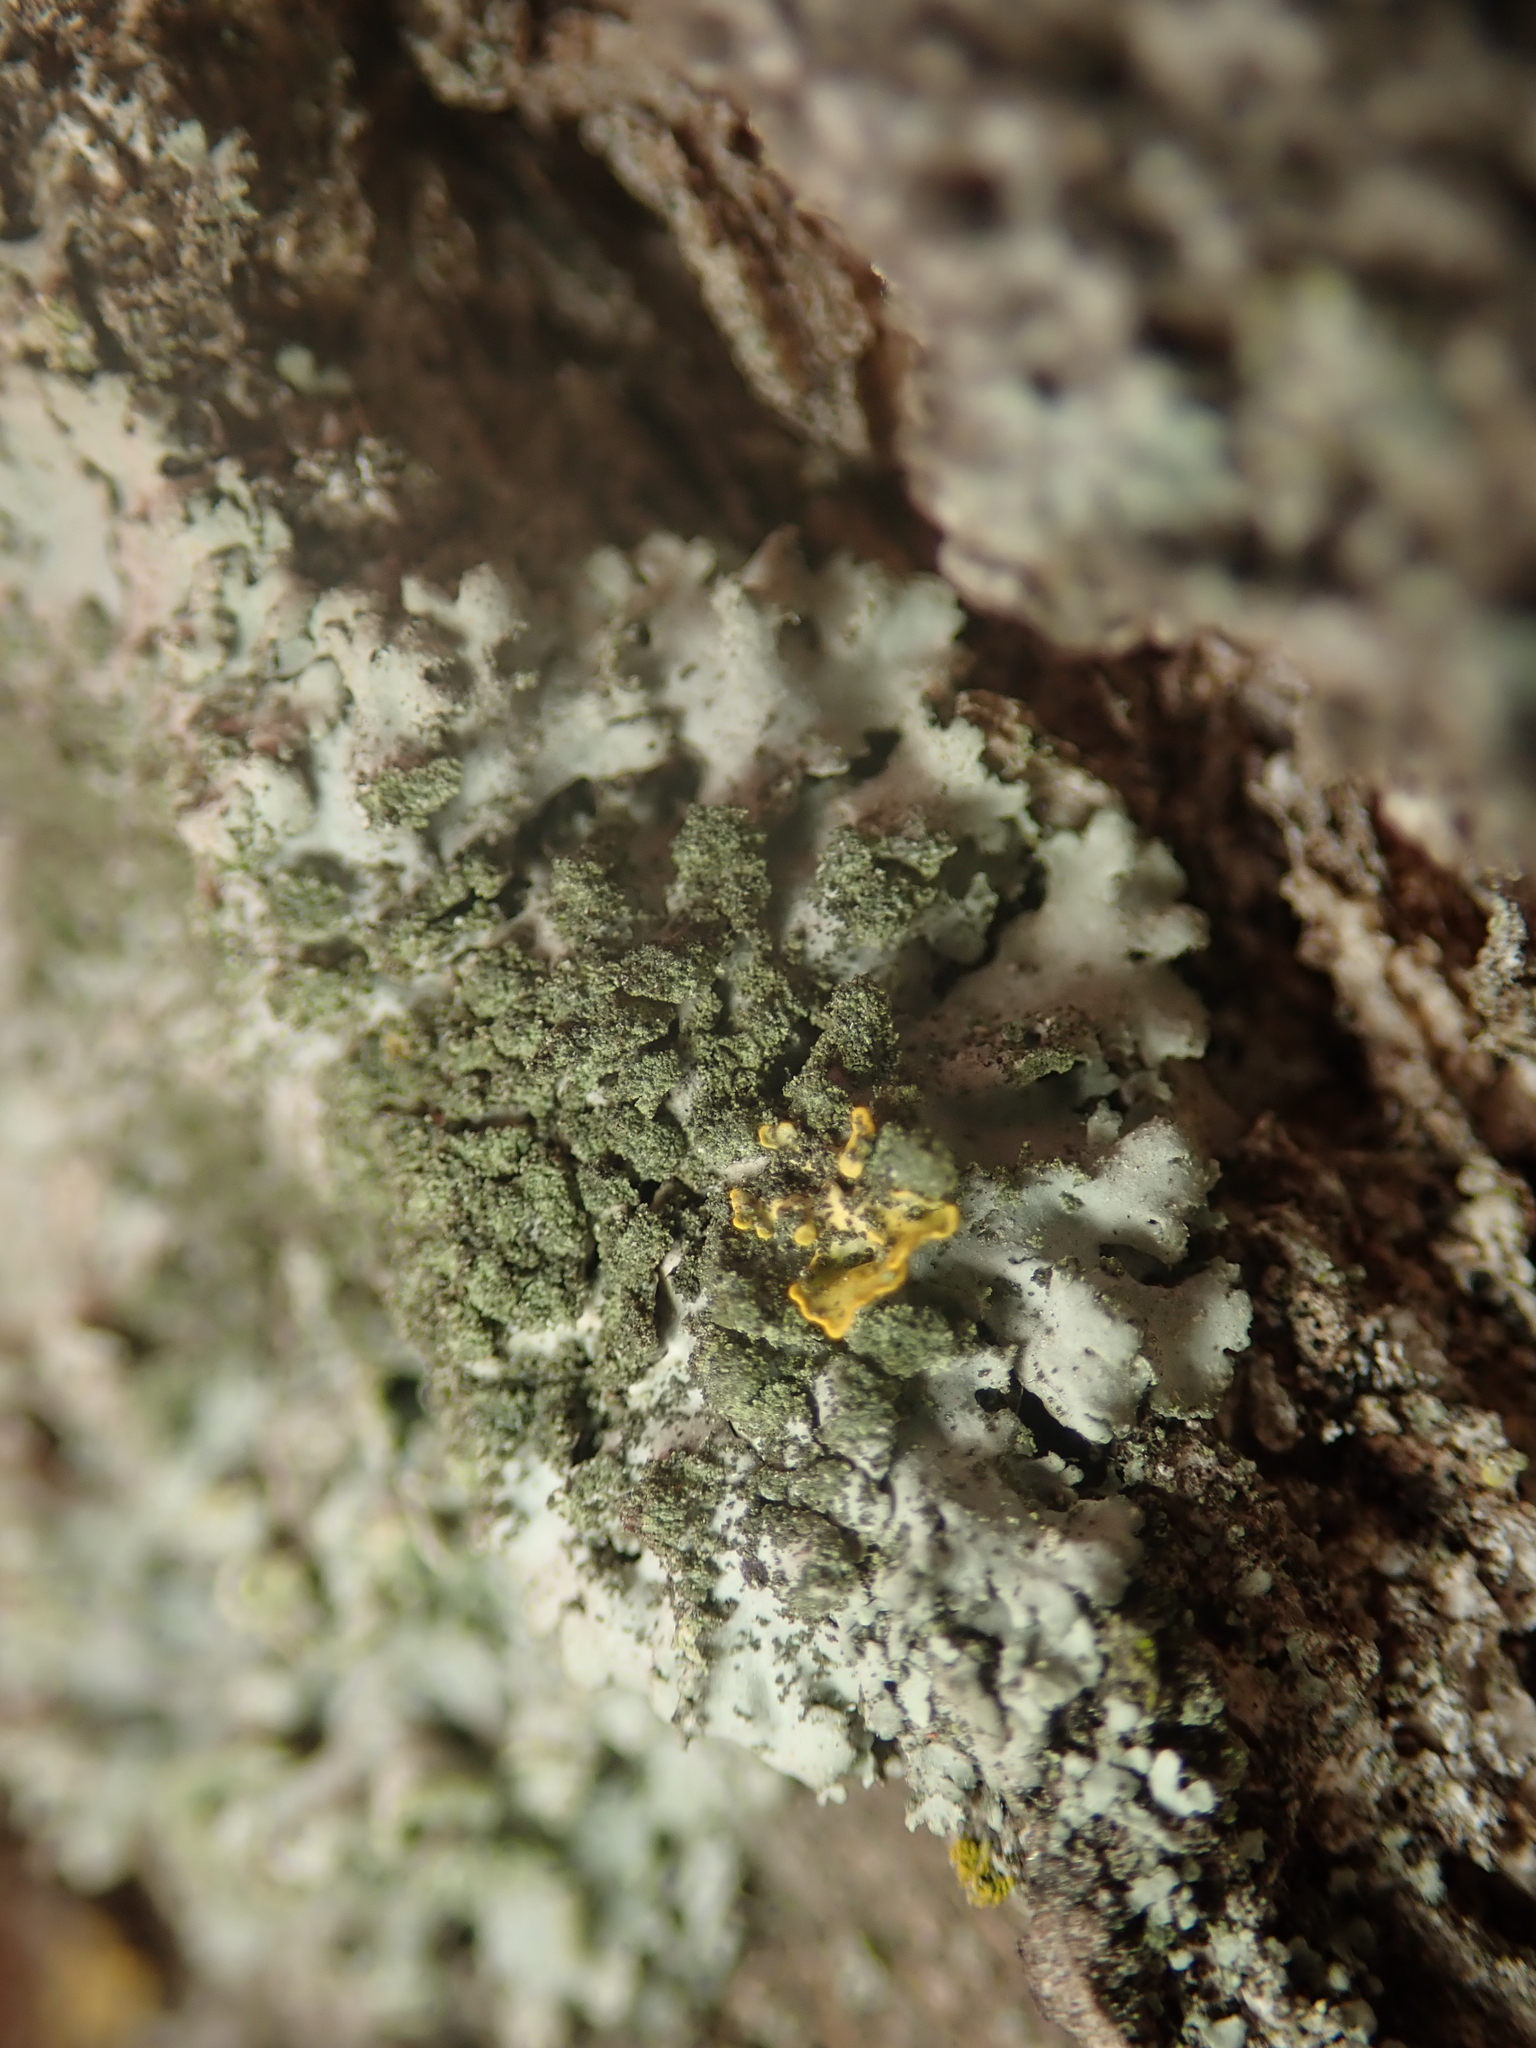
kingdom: Fungi
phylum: Ascomycota
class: Lecanoromycetes
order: Caliciales
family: Physciaceae
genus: Phaeophyscia
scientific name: Phaeophyscia orbicularis
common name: Mealy shadow lichen
